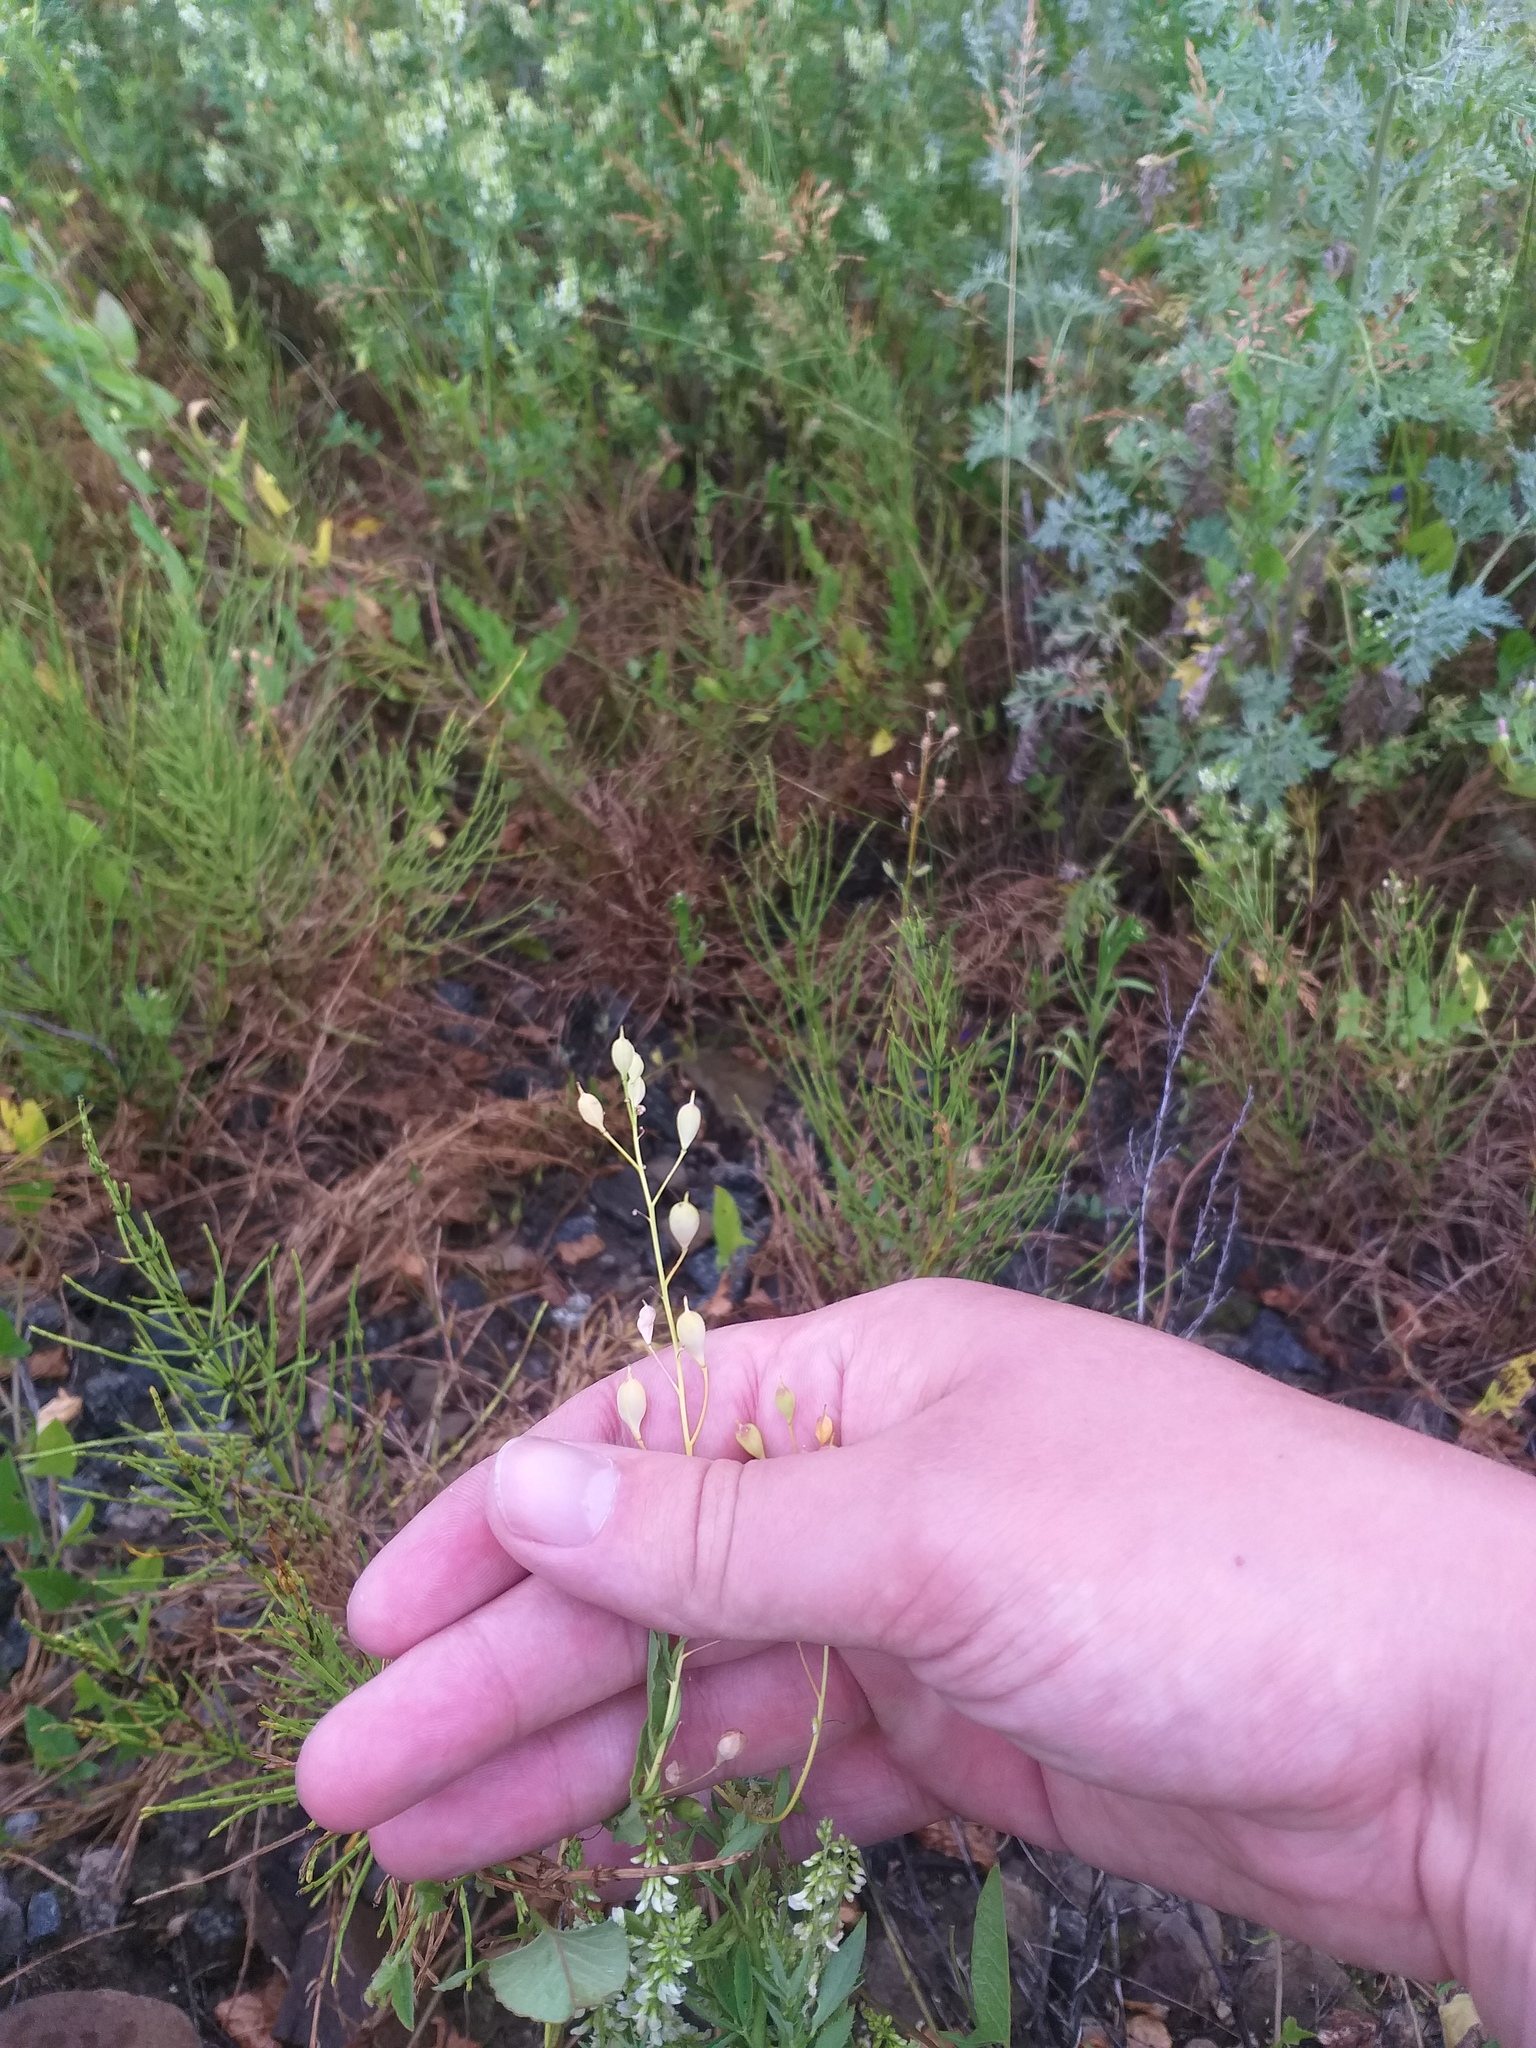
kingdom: Plantae
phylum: Tracheophyta
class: Magnoliopsida
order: Brassicales
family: Brassicaceae
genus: Camelina
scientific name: Camelina sativa
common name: Gold-of-pleasure
